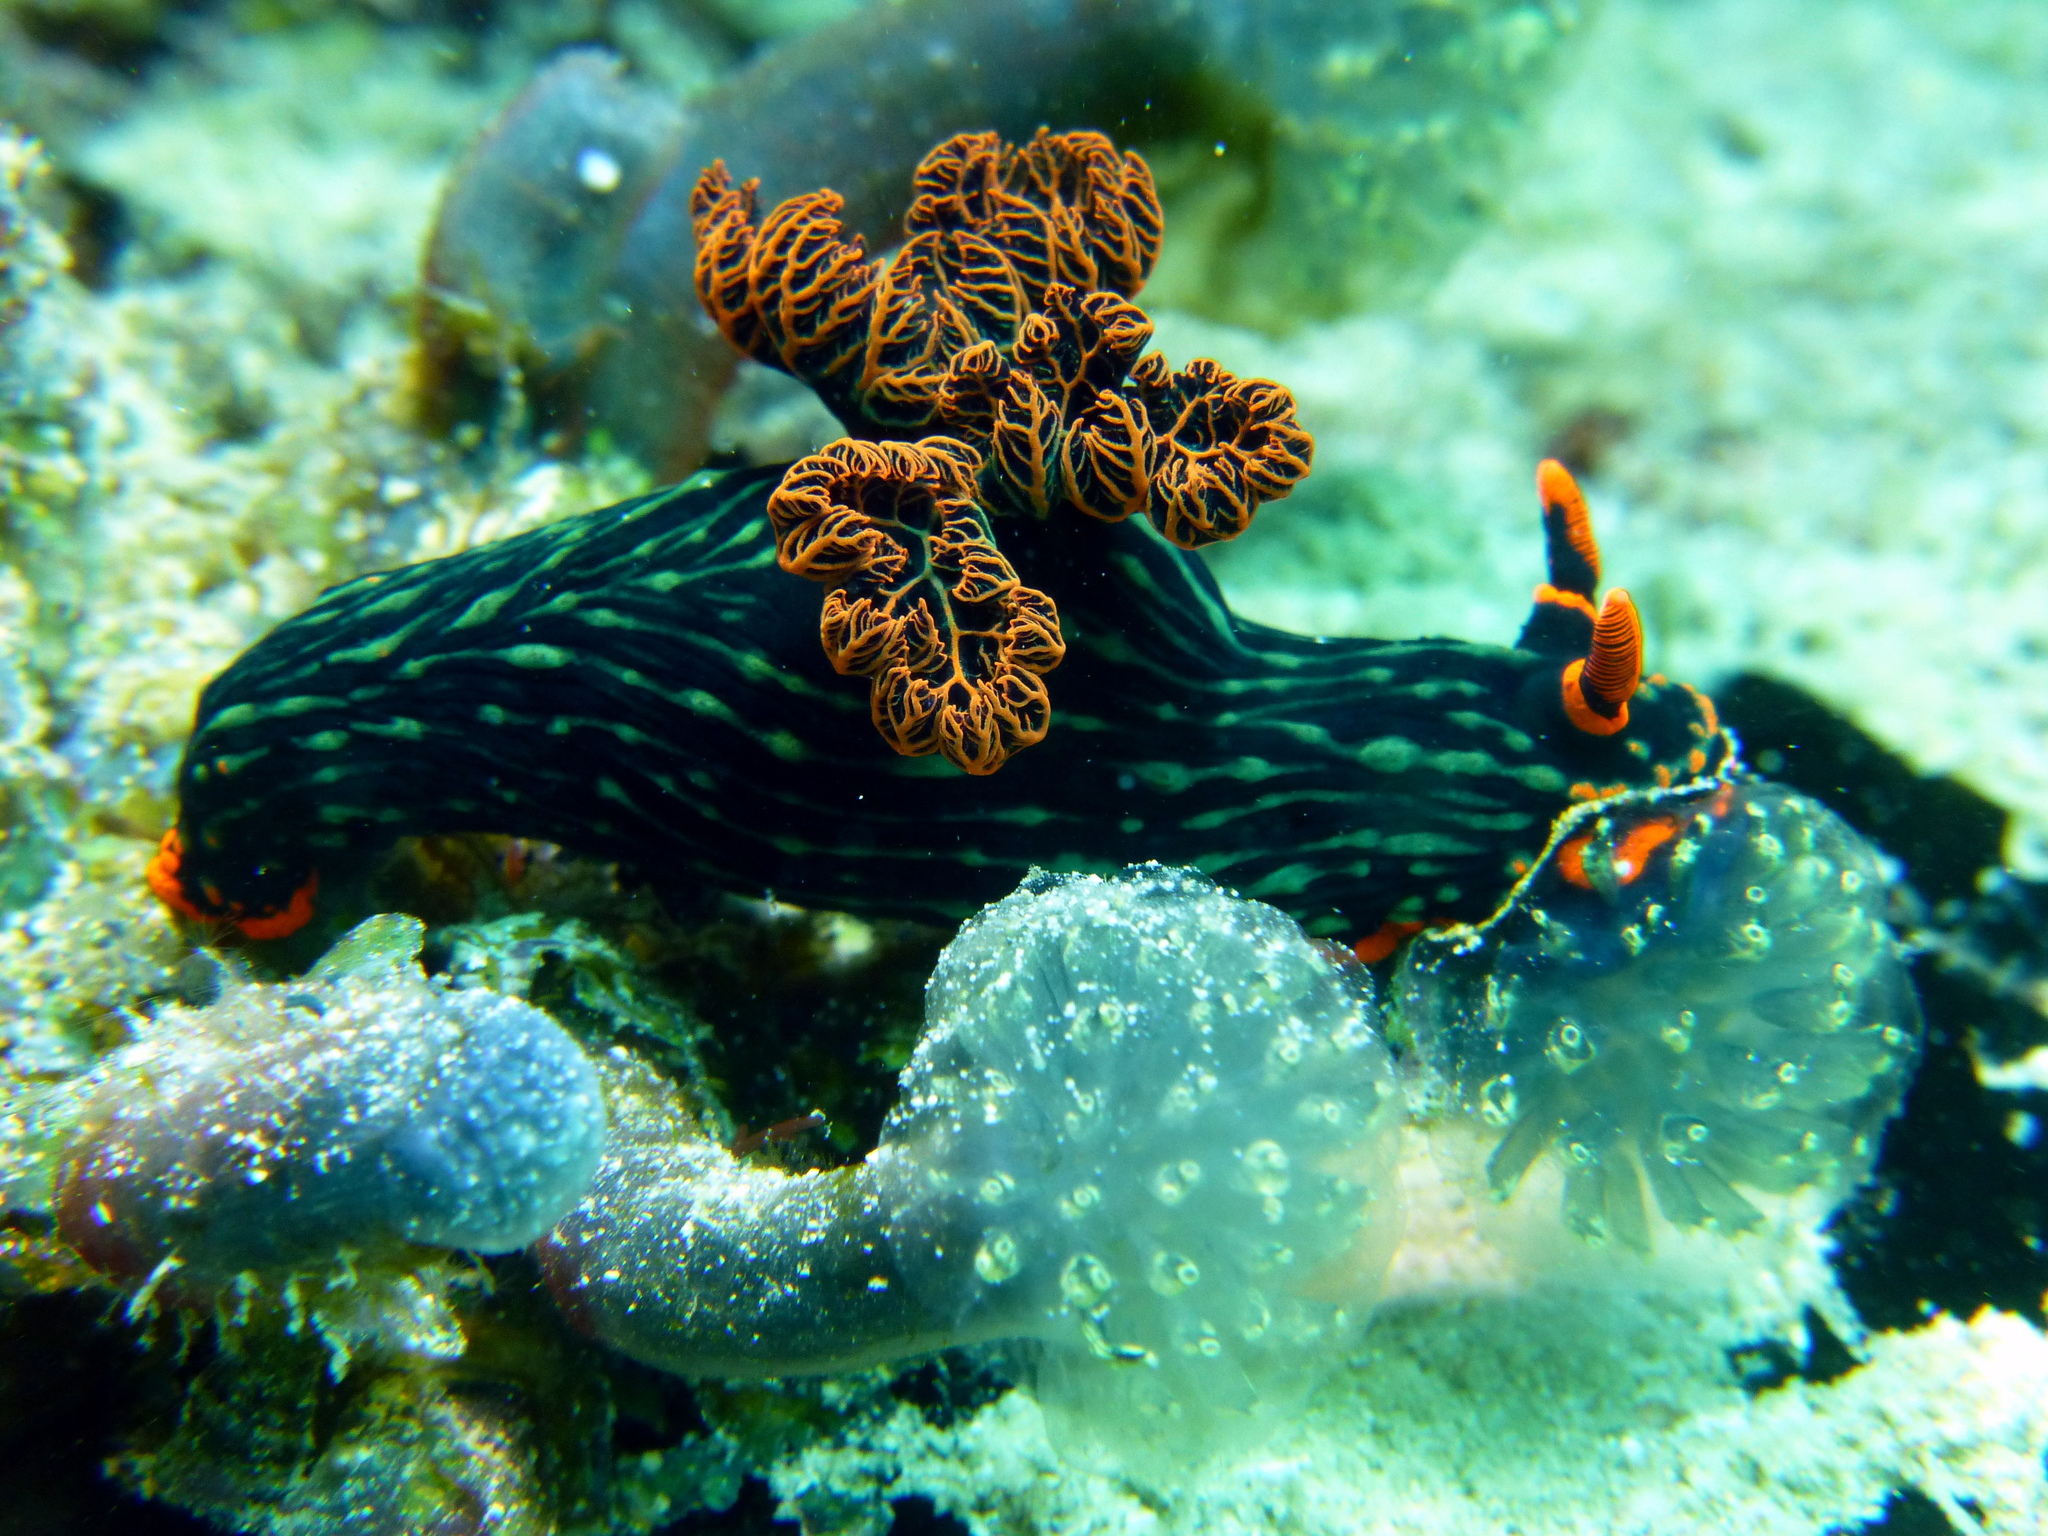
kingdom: Animalia
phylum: Mollusca
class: Gastropoda
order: Nudibranchia
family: Polyceridae
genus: Nembrotha
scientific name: Nembrotha kubaryana
